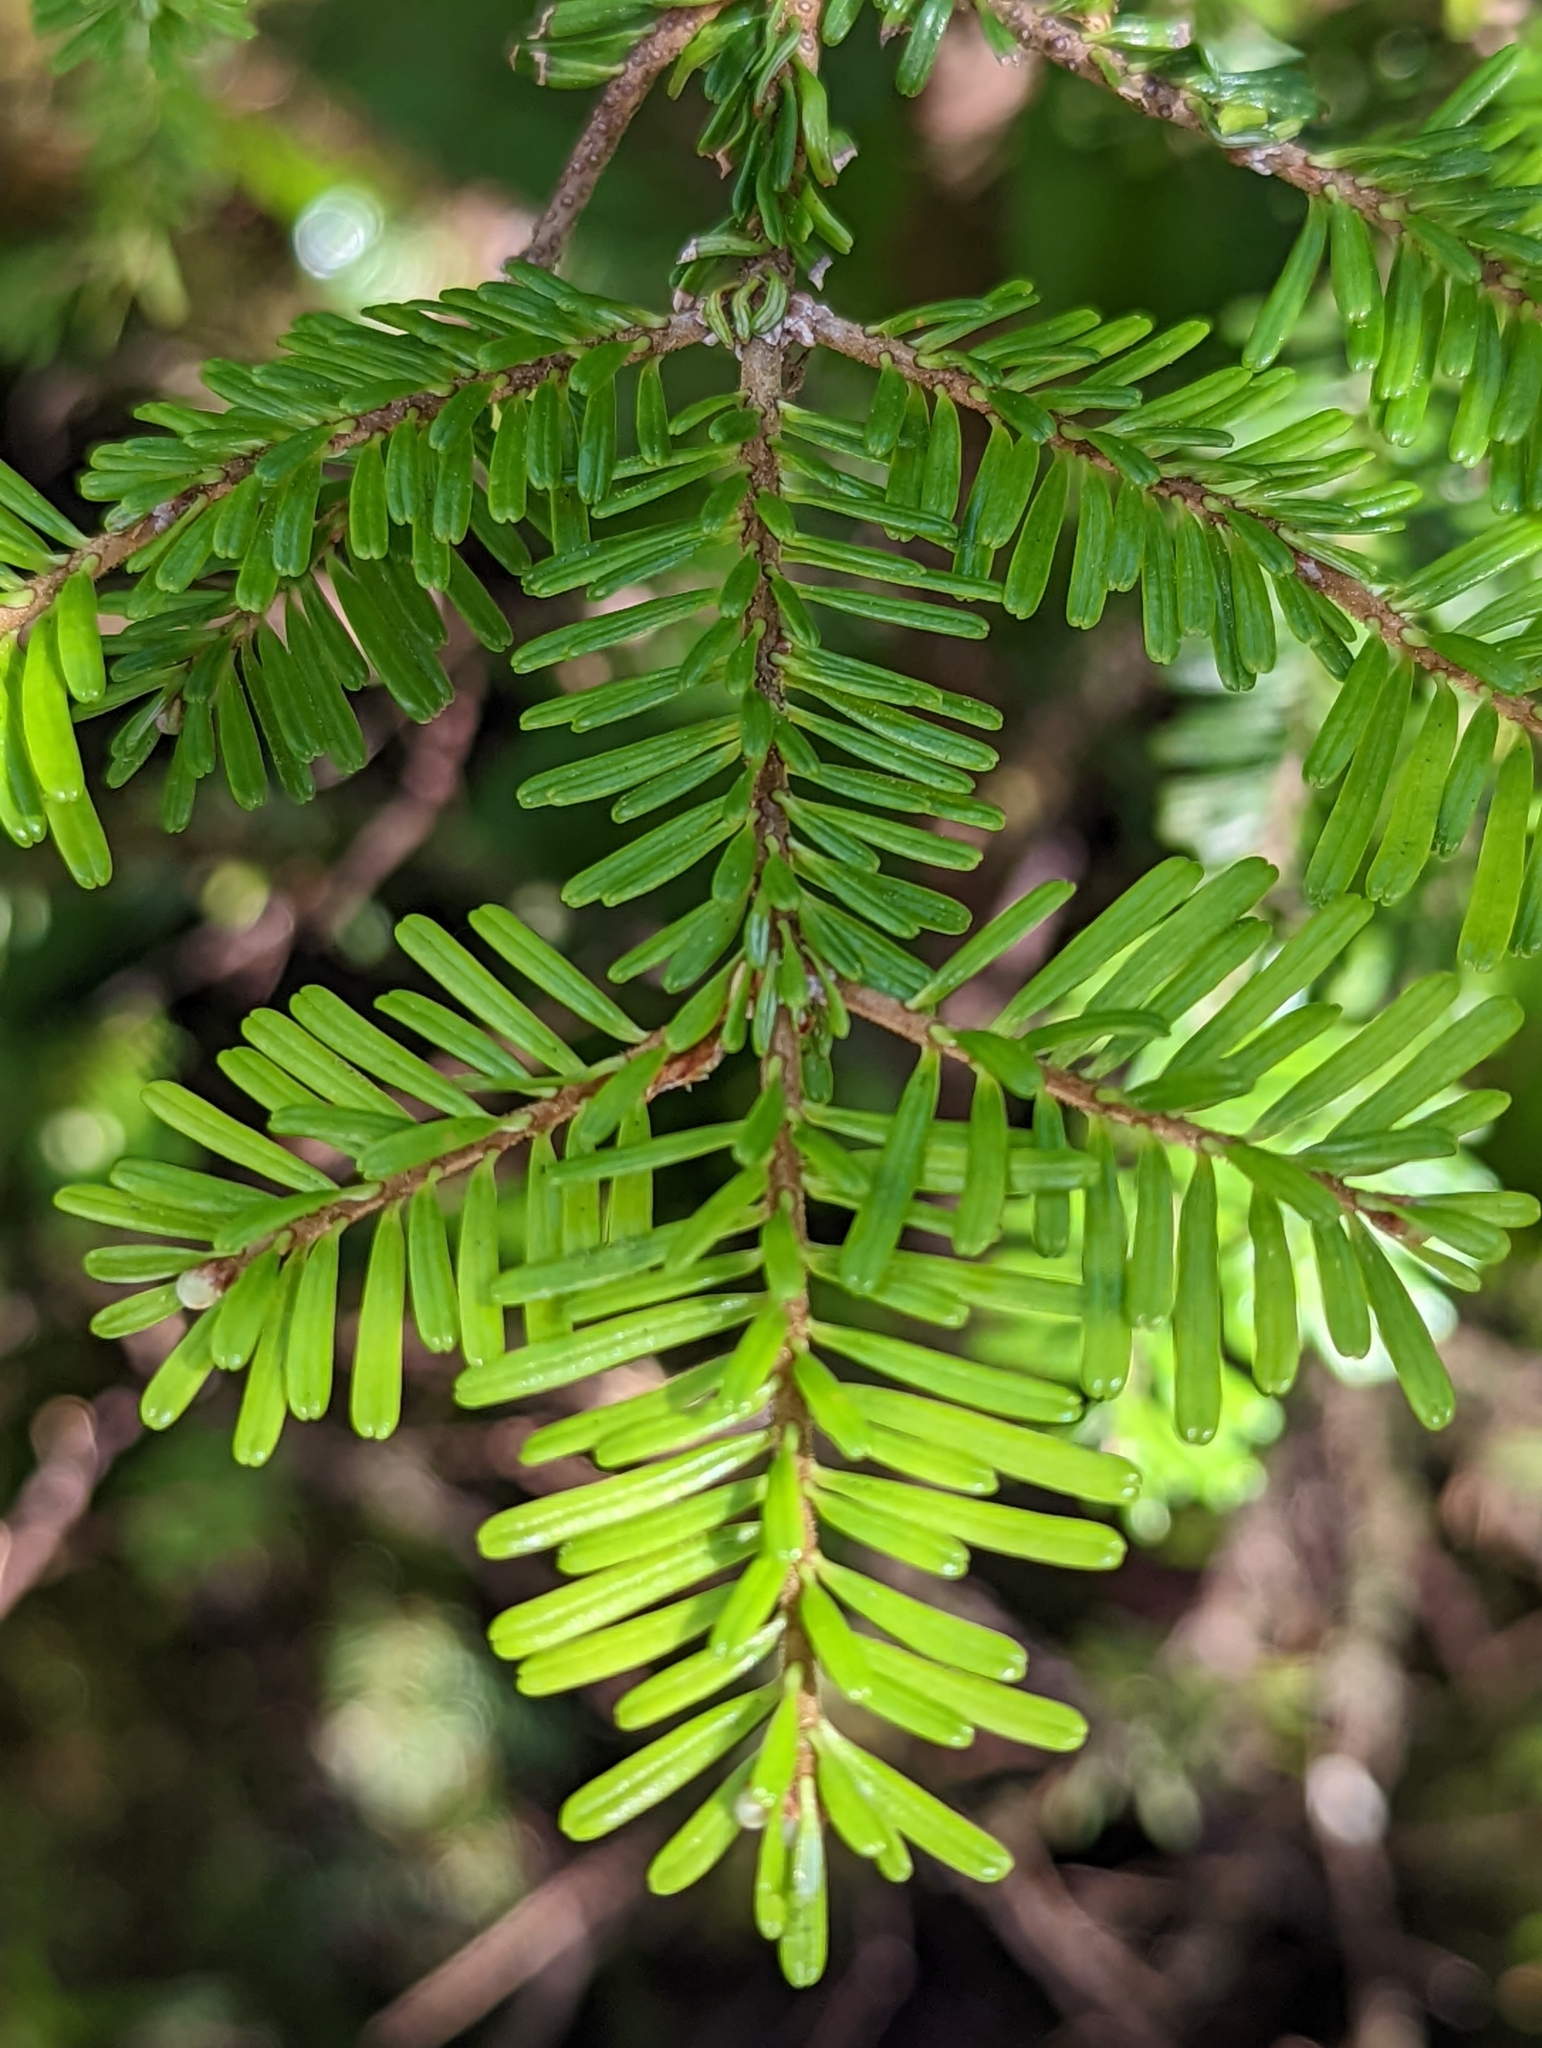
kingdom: Plantae
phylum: Tracheophyta
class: Pinopsida
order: Pinales
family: Pinaceae
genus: Abies
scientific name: Abies amabilis
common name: Pacific silver fir
